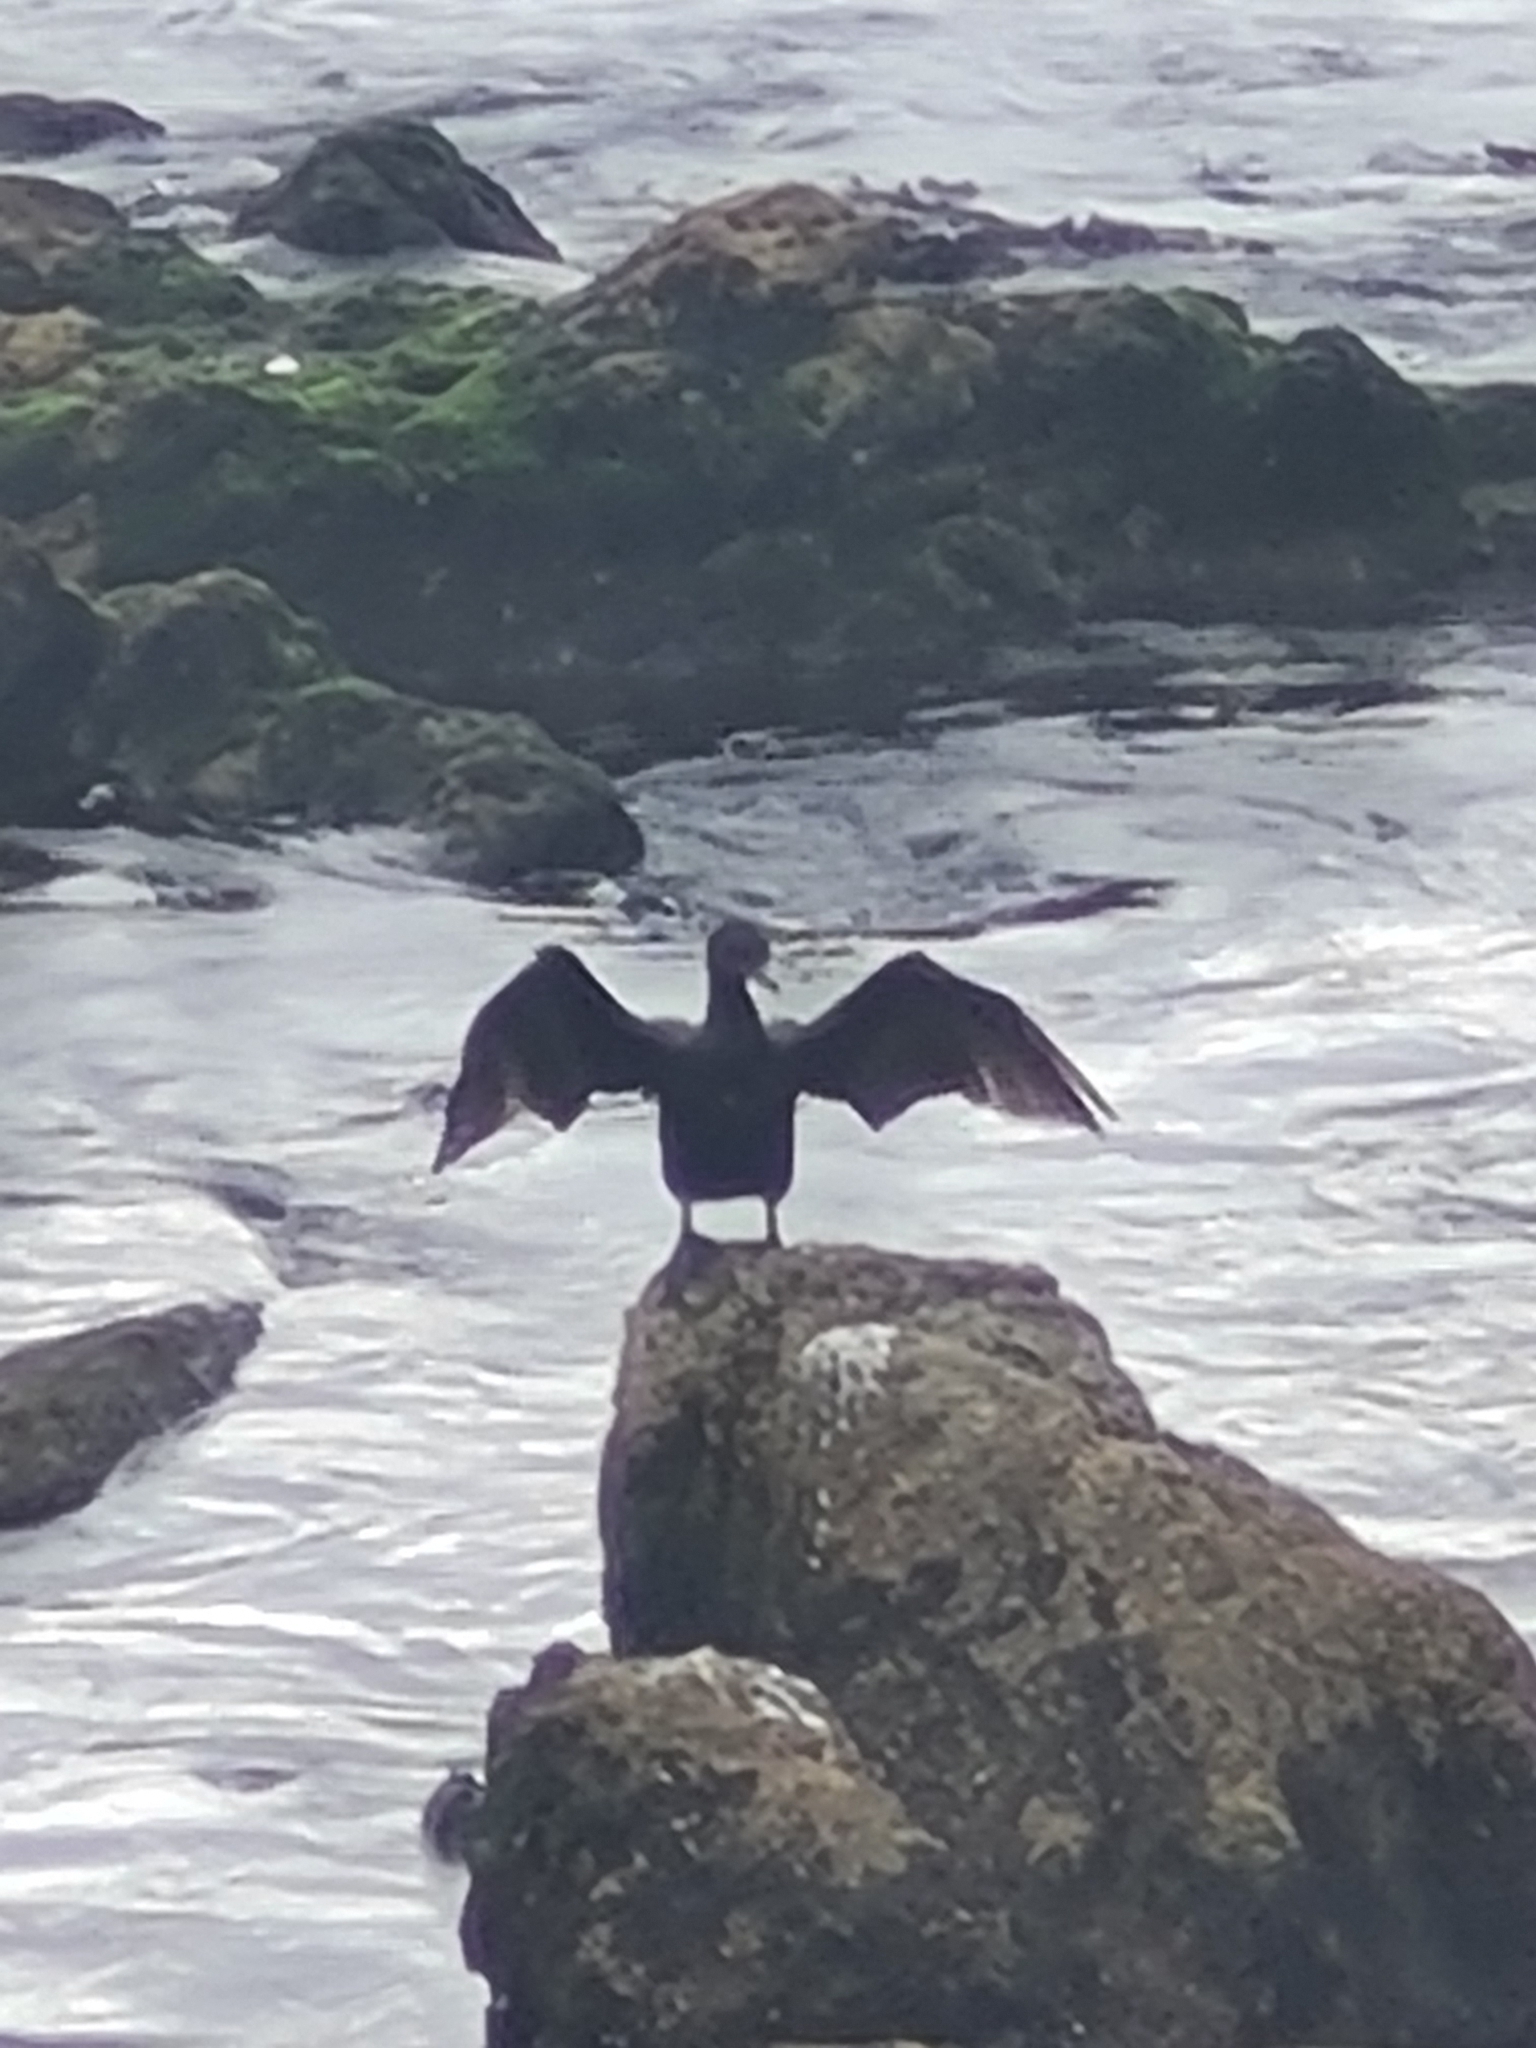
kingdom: Animalia
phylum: Chordata
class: Aves
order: Suliformes
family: Phalacrocoracidae
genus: Phalacrocorax
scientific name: Phalacrocorax brasilianus
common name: Neotropic cormorant
